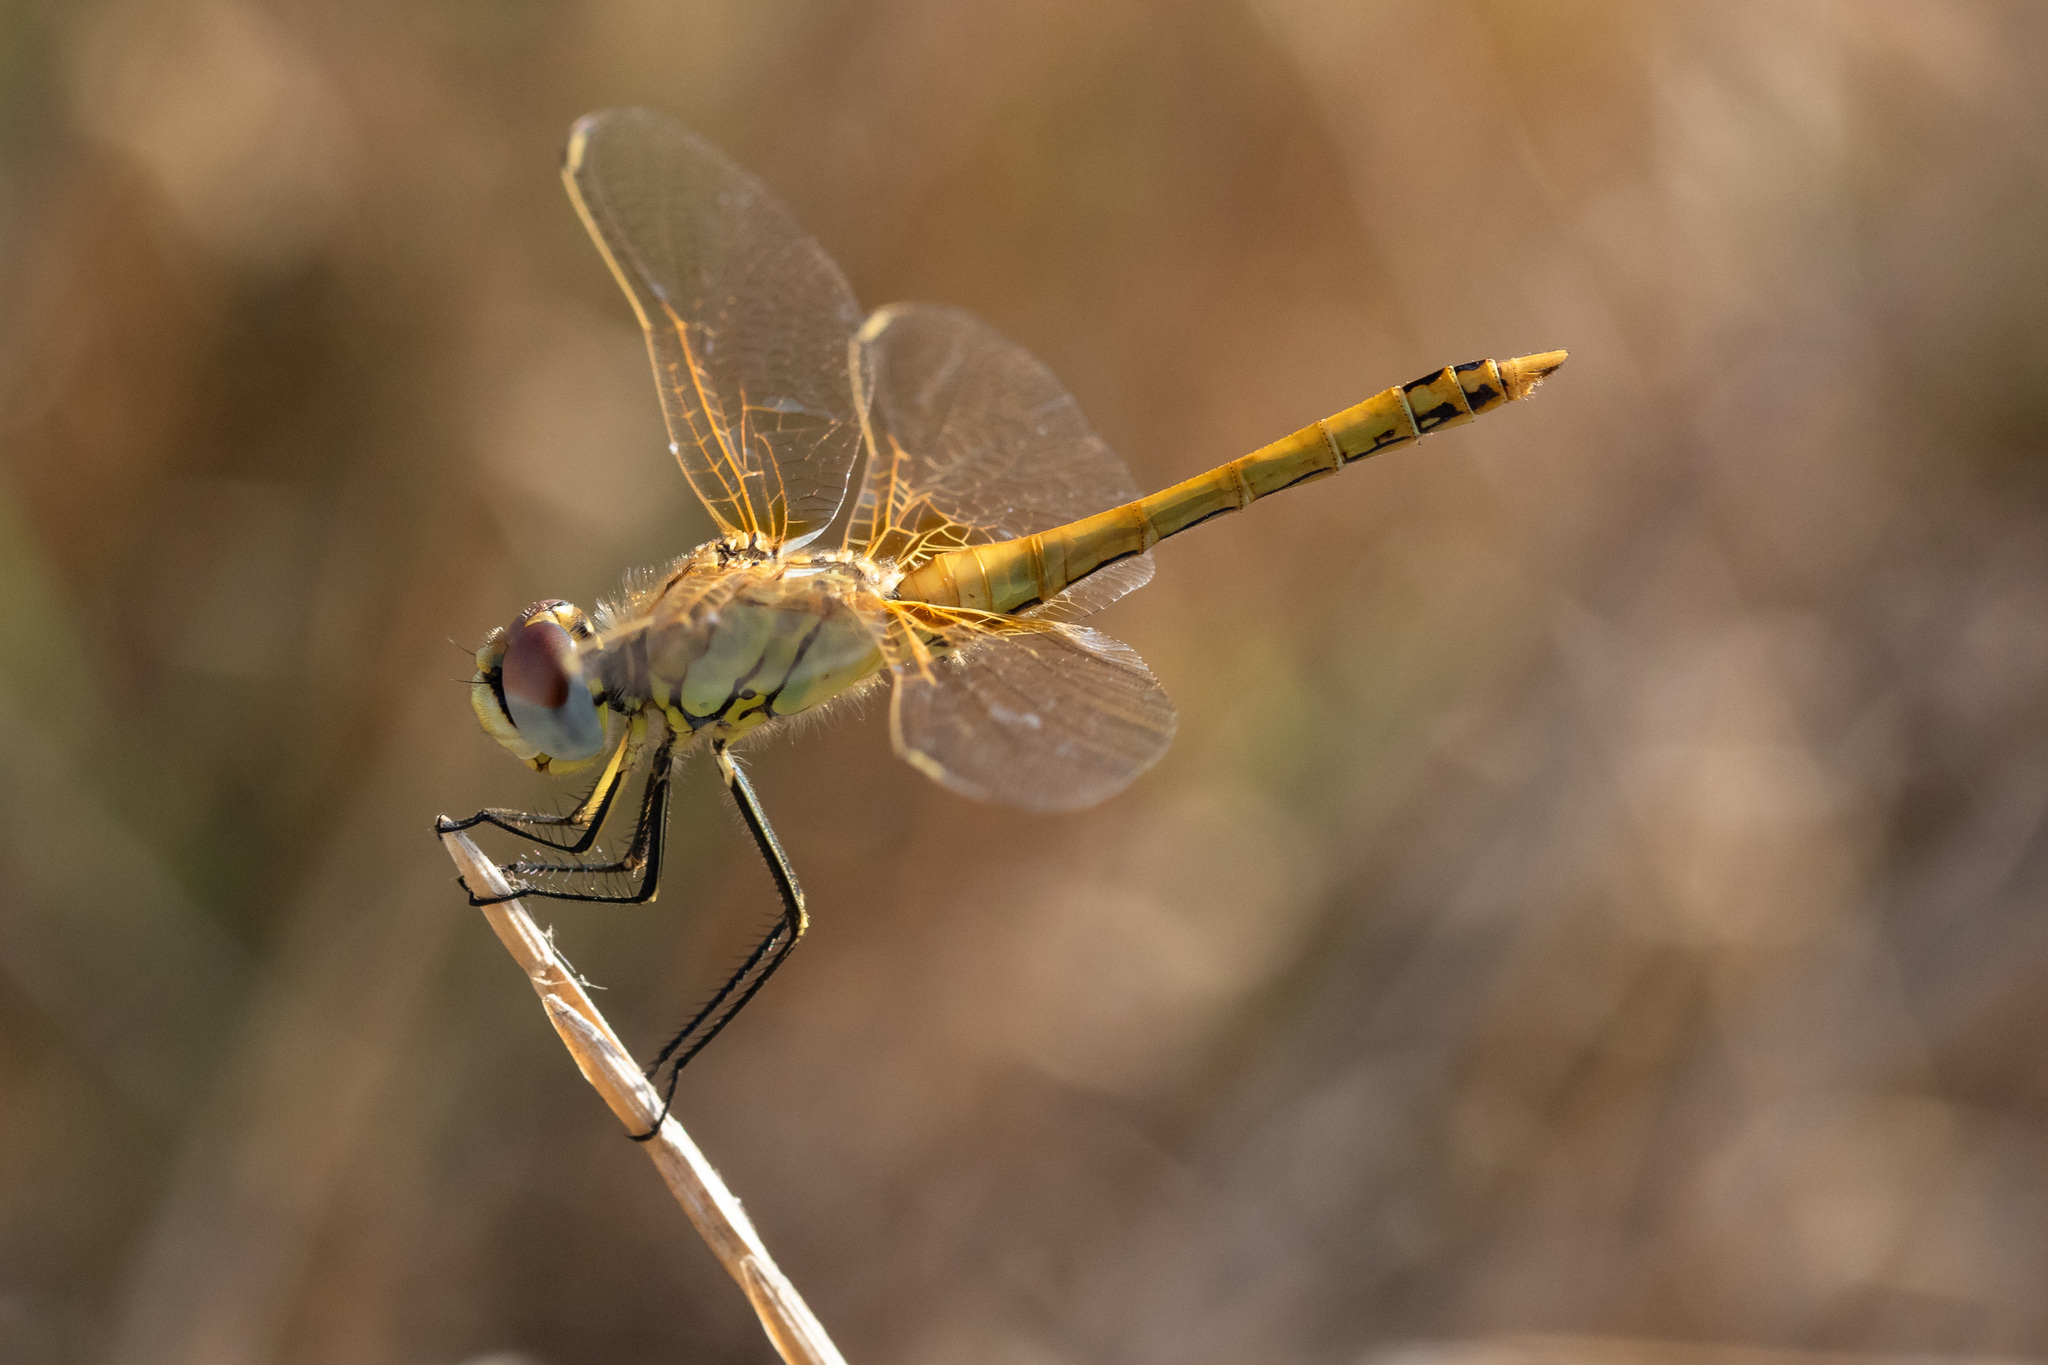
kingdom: Animalia
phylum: Arthropoda
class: Insecta
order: Odonata
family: Libellulidae
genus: Sympetrum
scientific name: Sympetrum fonscolombii
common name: Red-veined darter
